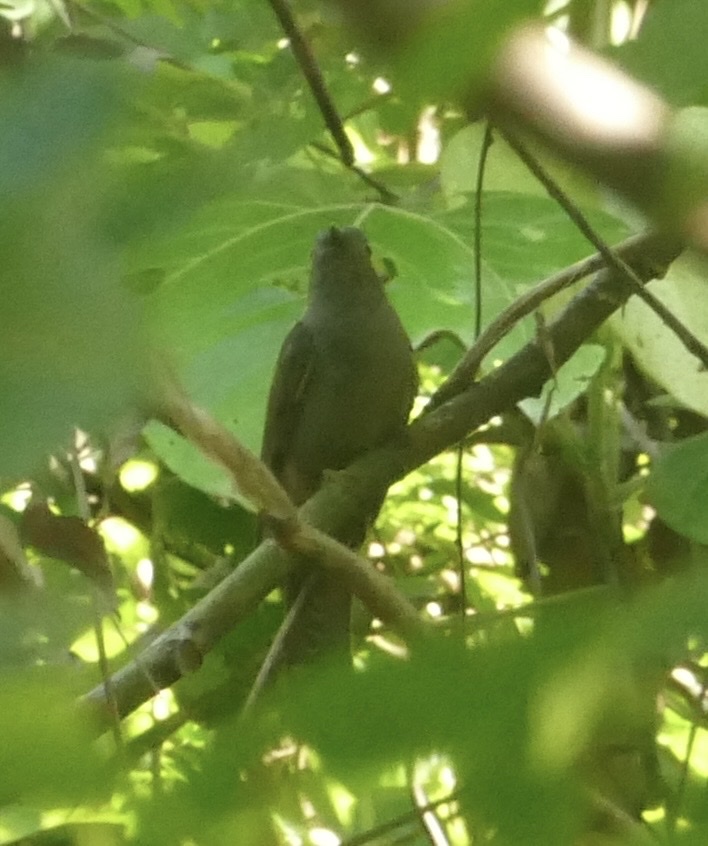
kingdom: Animalia
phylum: Chordata
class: Aves
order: Cuculiformes
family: Cuculidae
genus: Cacomantis
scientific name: Cacomantis variolosus
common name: Brush cuckoo
